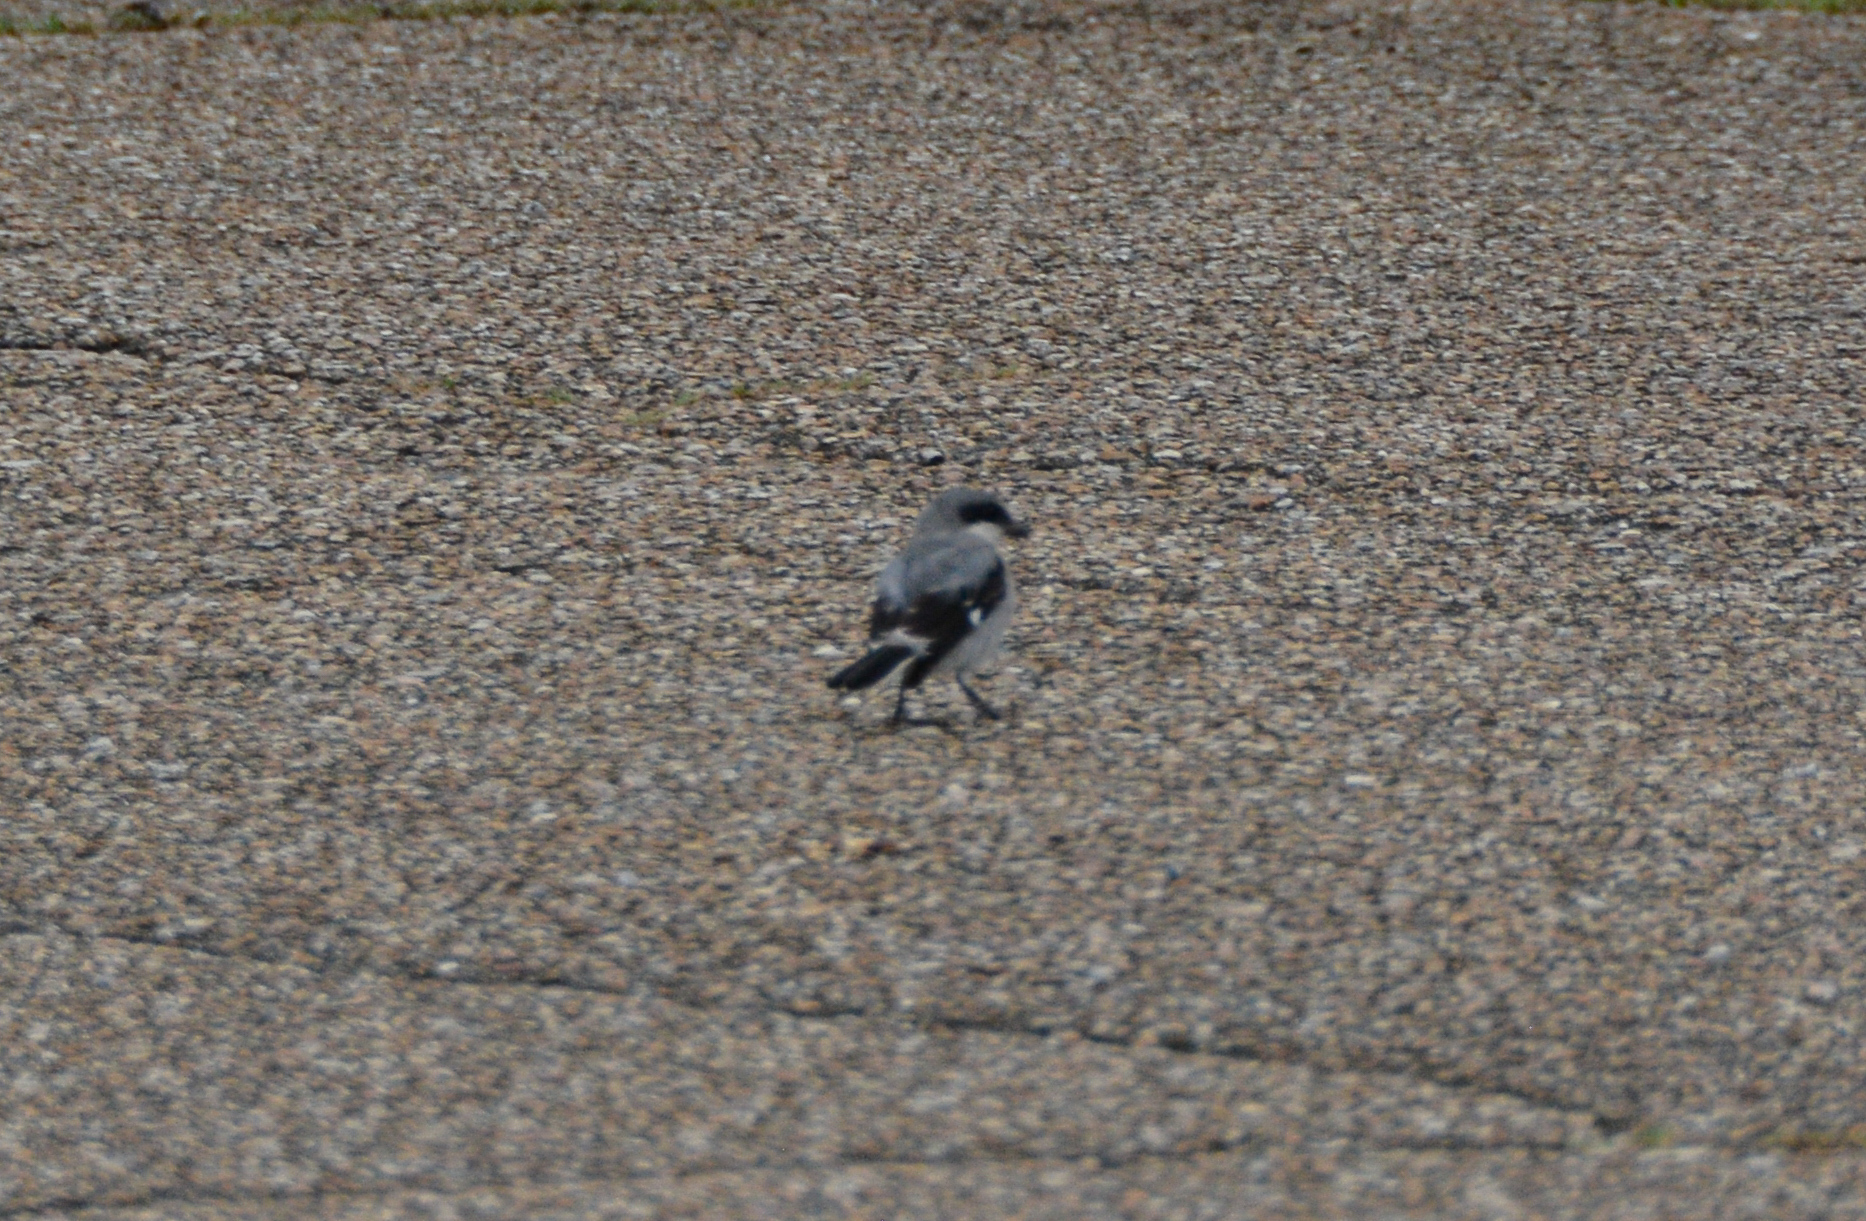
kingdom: Animalia
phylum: Chordata
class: Aves
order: Passeriformes
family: Laniidae
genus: Lanius
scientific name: Lanius ludovicianus
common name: Loggerhead shrike
